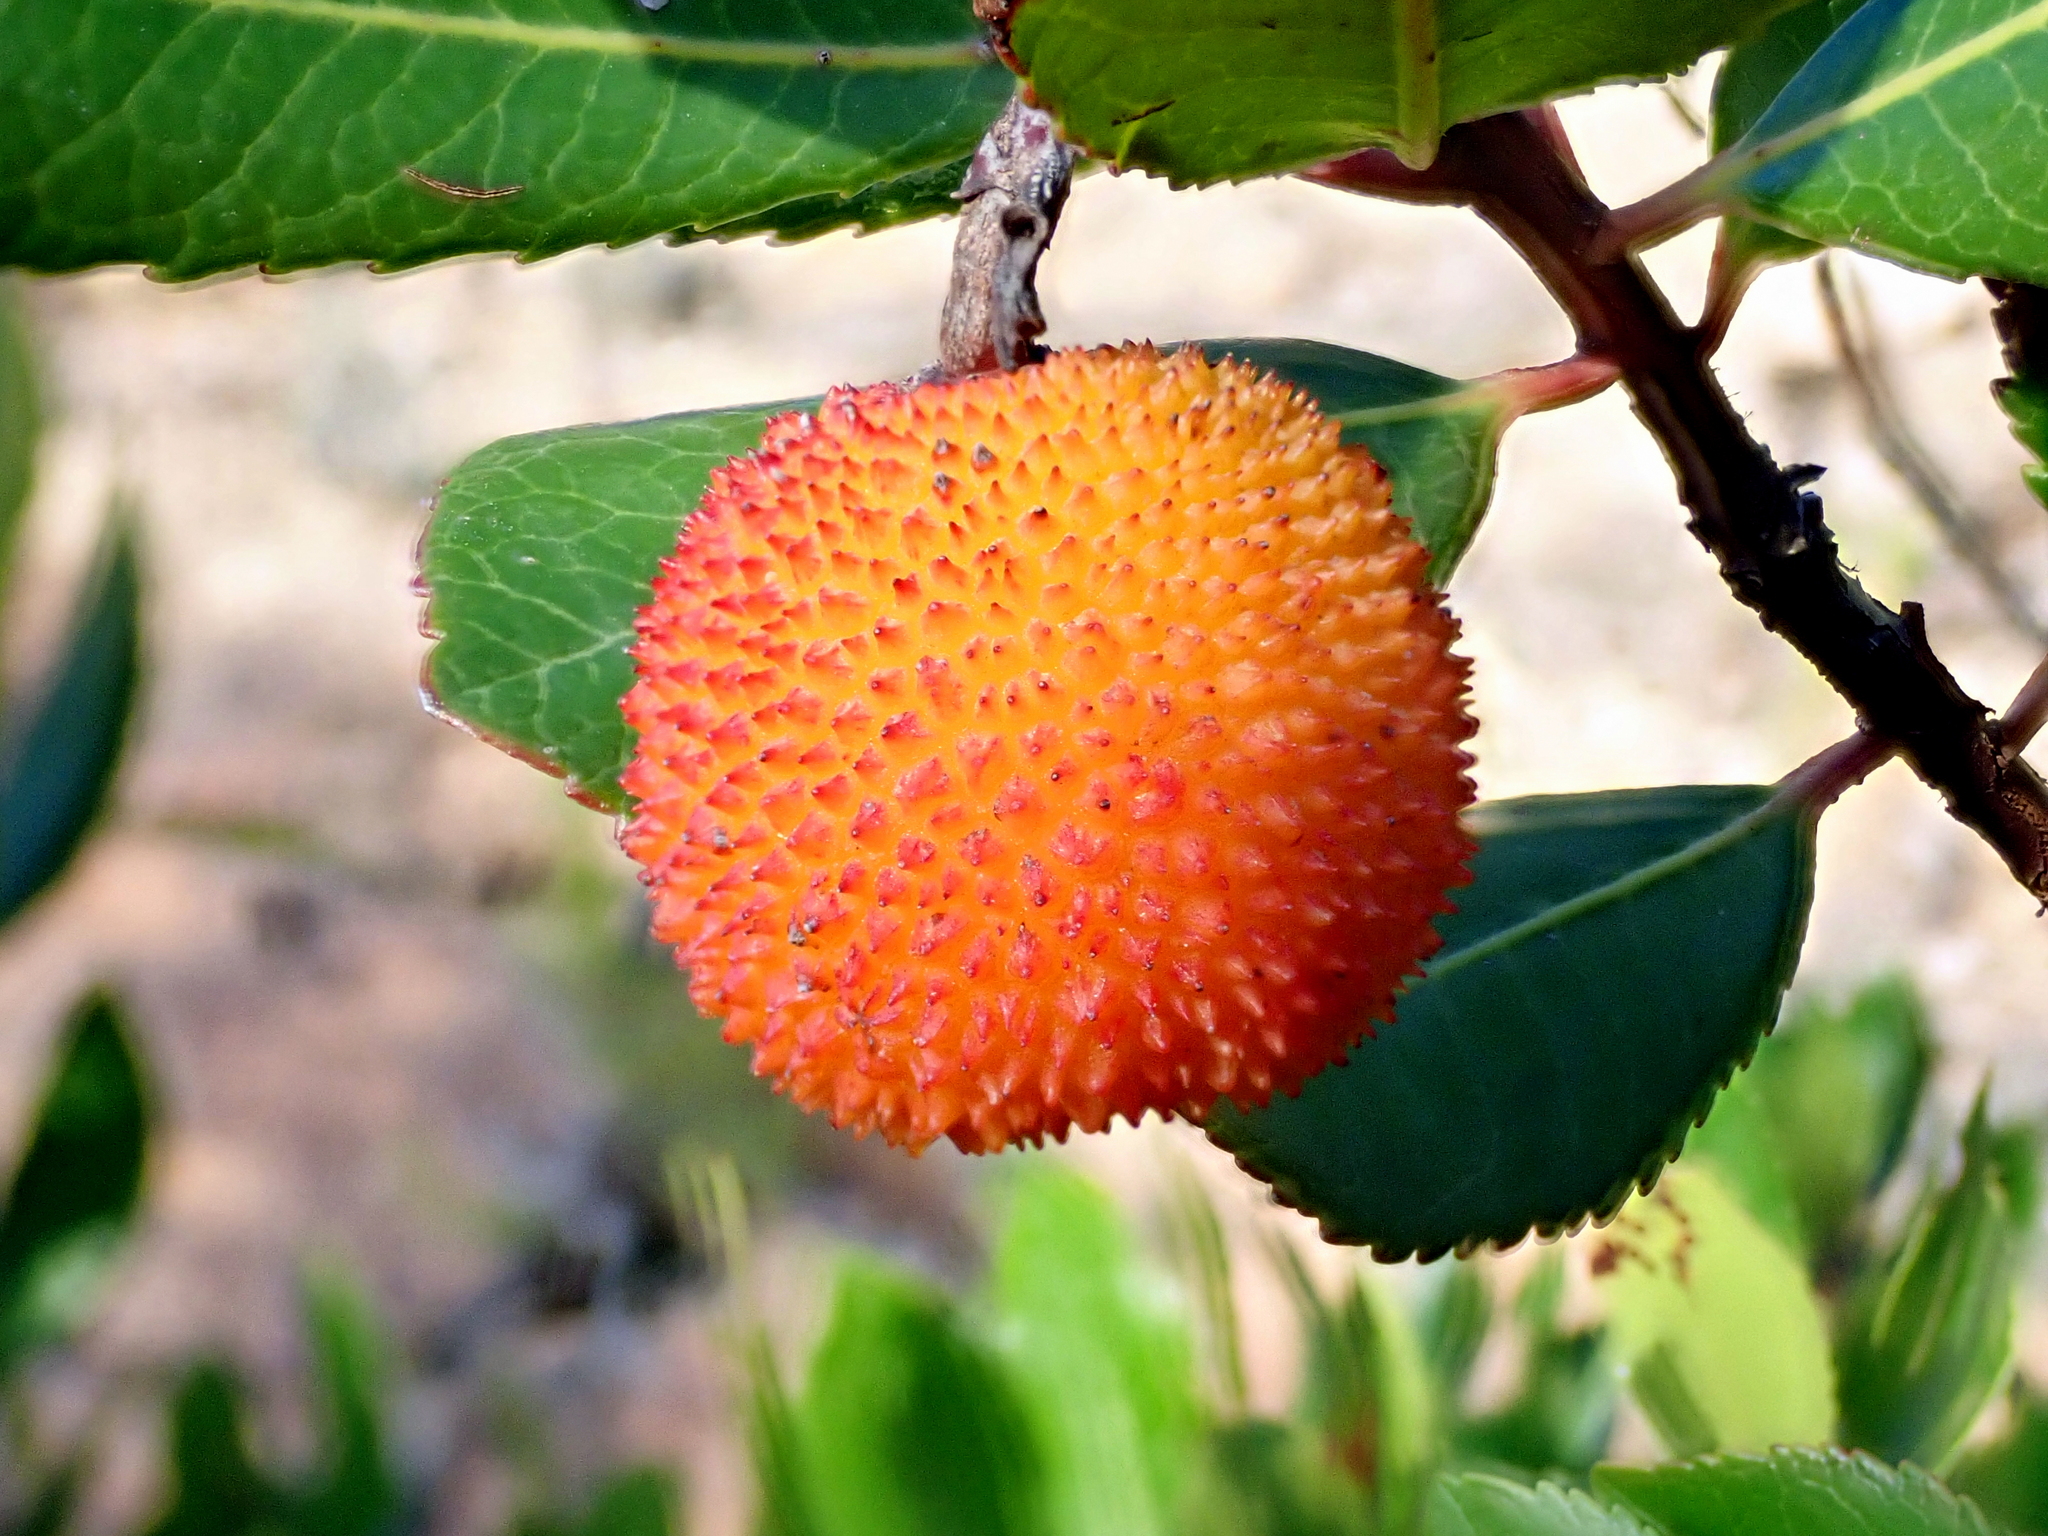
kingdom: Plantae
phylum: Tracheophyta
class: Magnoliopsida
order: Ericales
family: Ericaceae
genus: Arbutus
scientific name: Arbutus unedo
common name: Strawberry-tree
